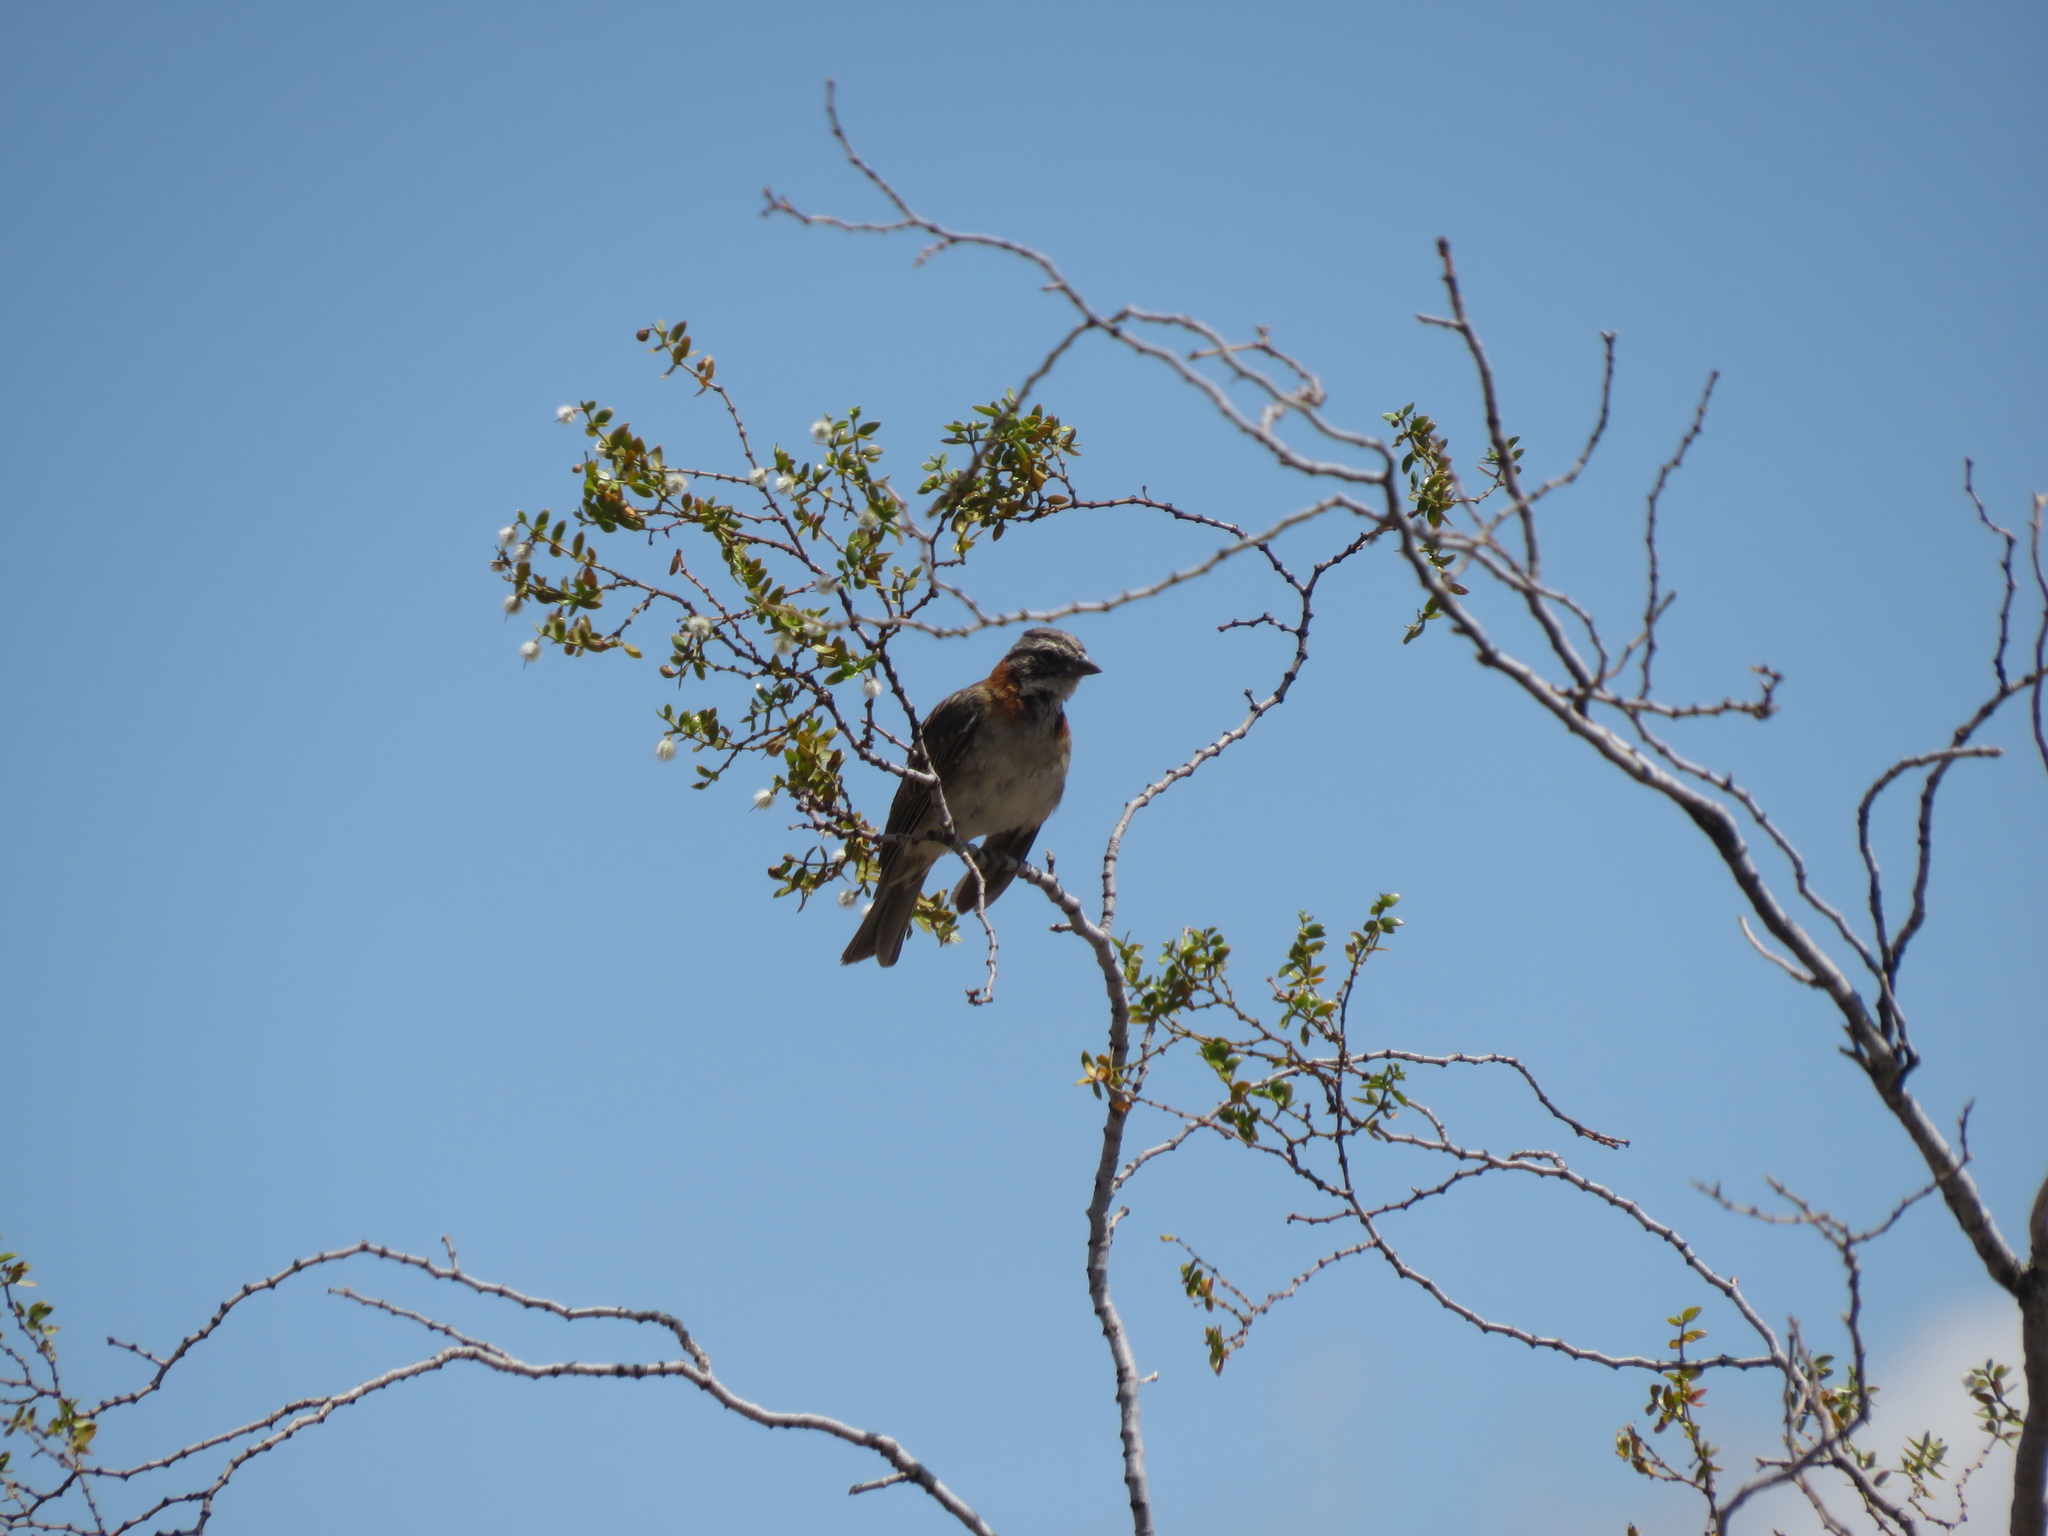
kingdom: Animalia
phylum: Chordata
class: Aves
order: Passeriformes
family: Passerellidae
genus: Zonotrichia
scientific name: Zonotrichia capensis
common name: Rufous-collared sparrow
